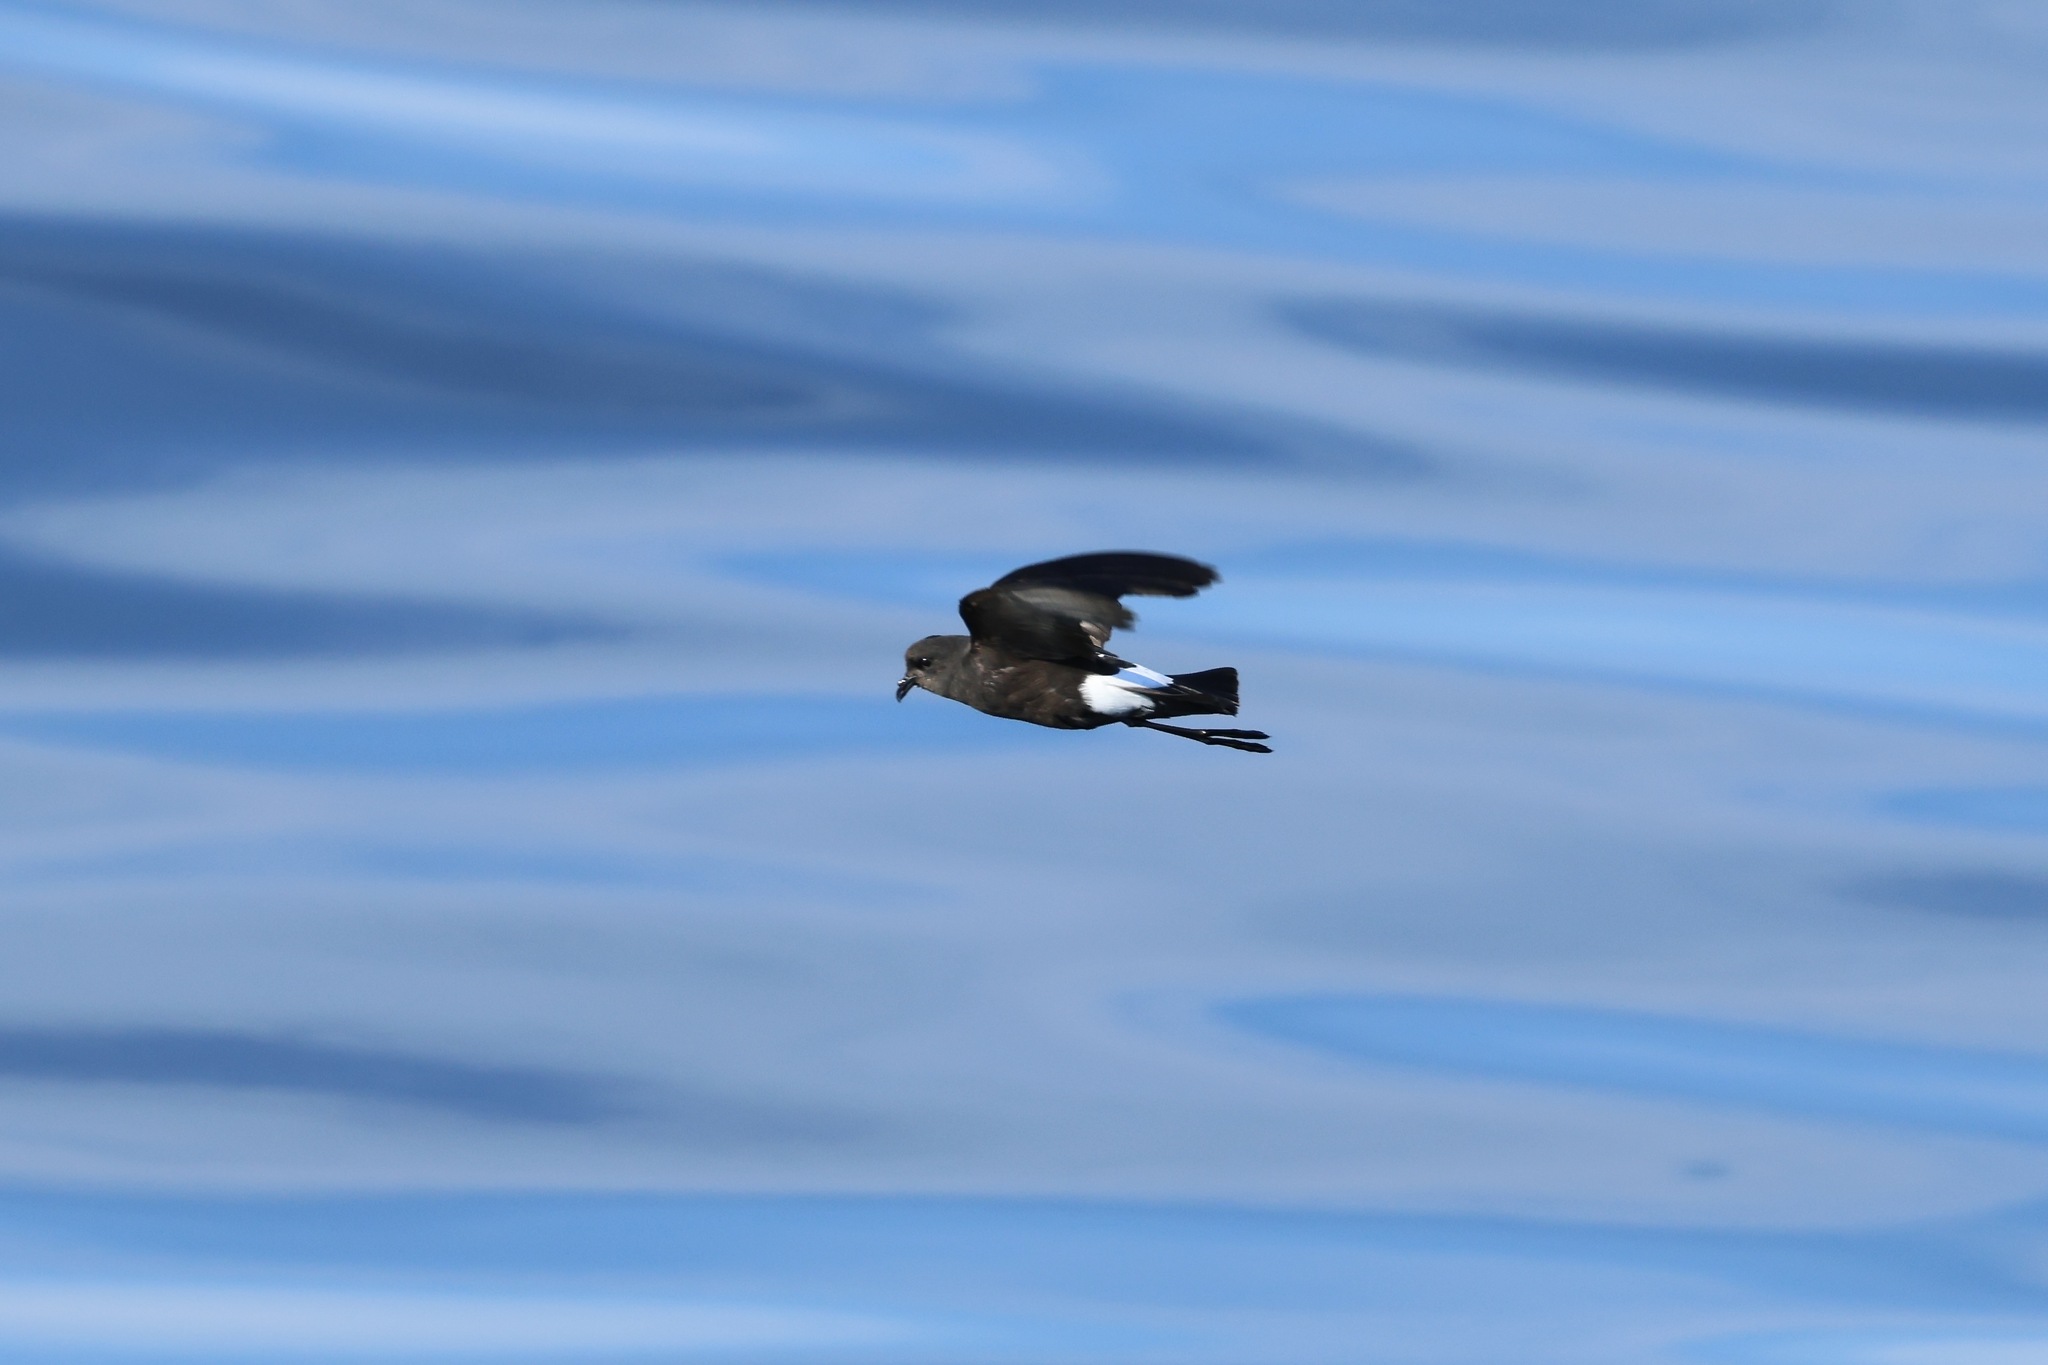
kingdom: Animalia
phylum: Chordata
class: Aves
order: Procellariiformes
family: Hydrobatidae
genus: Oceanites
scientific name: Oceanites oceanicus
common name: Wilson's storm petrel
